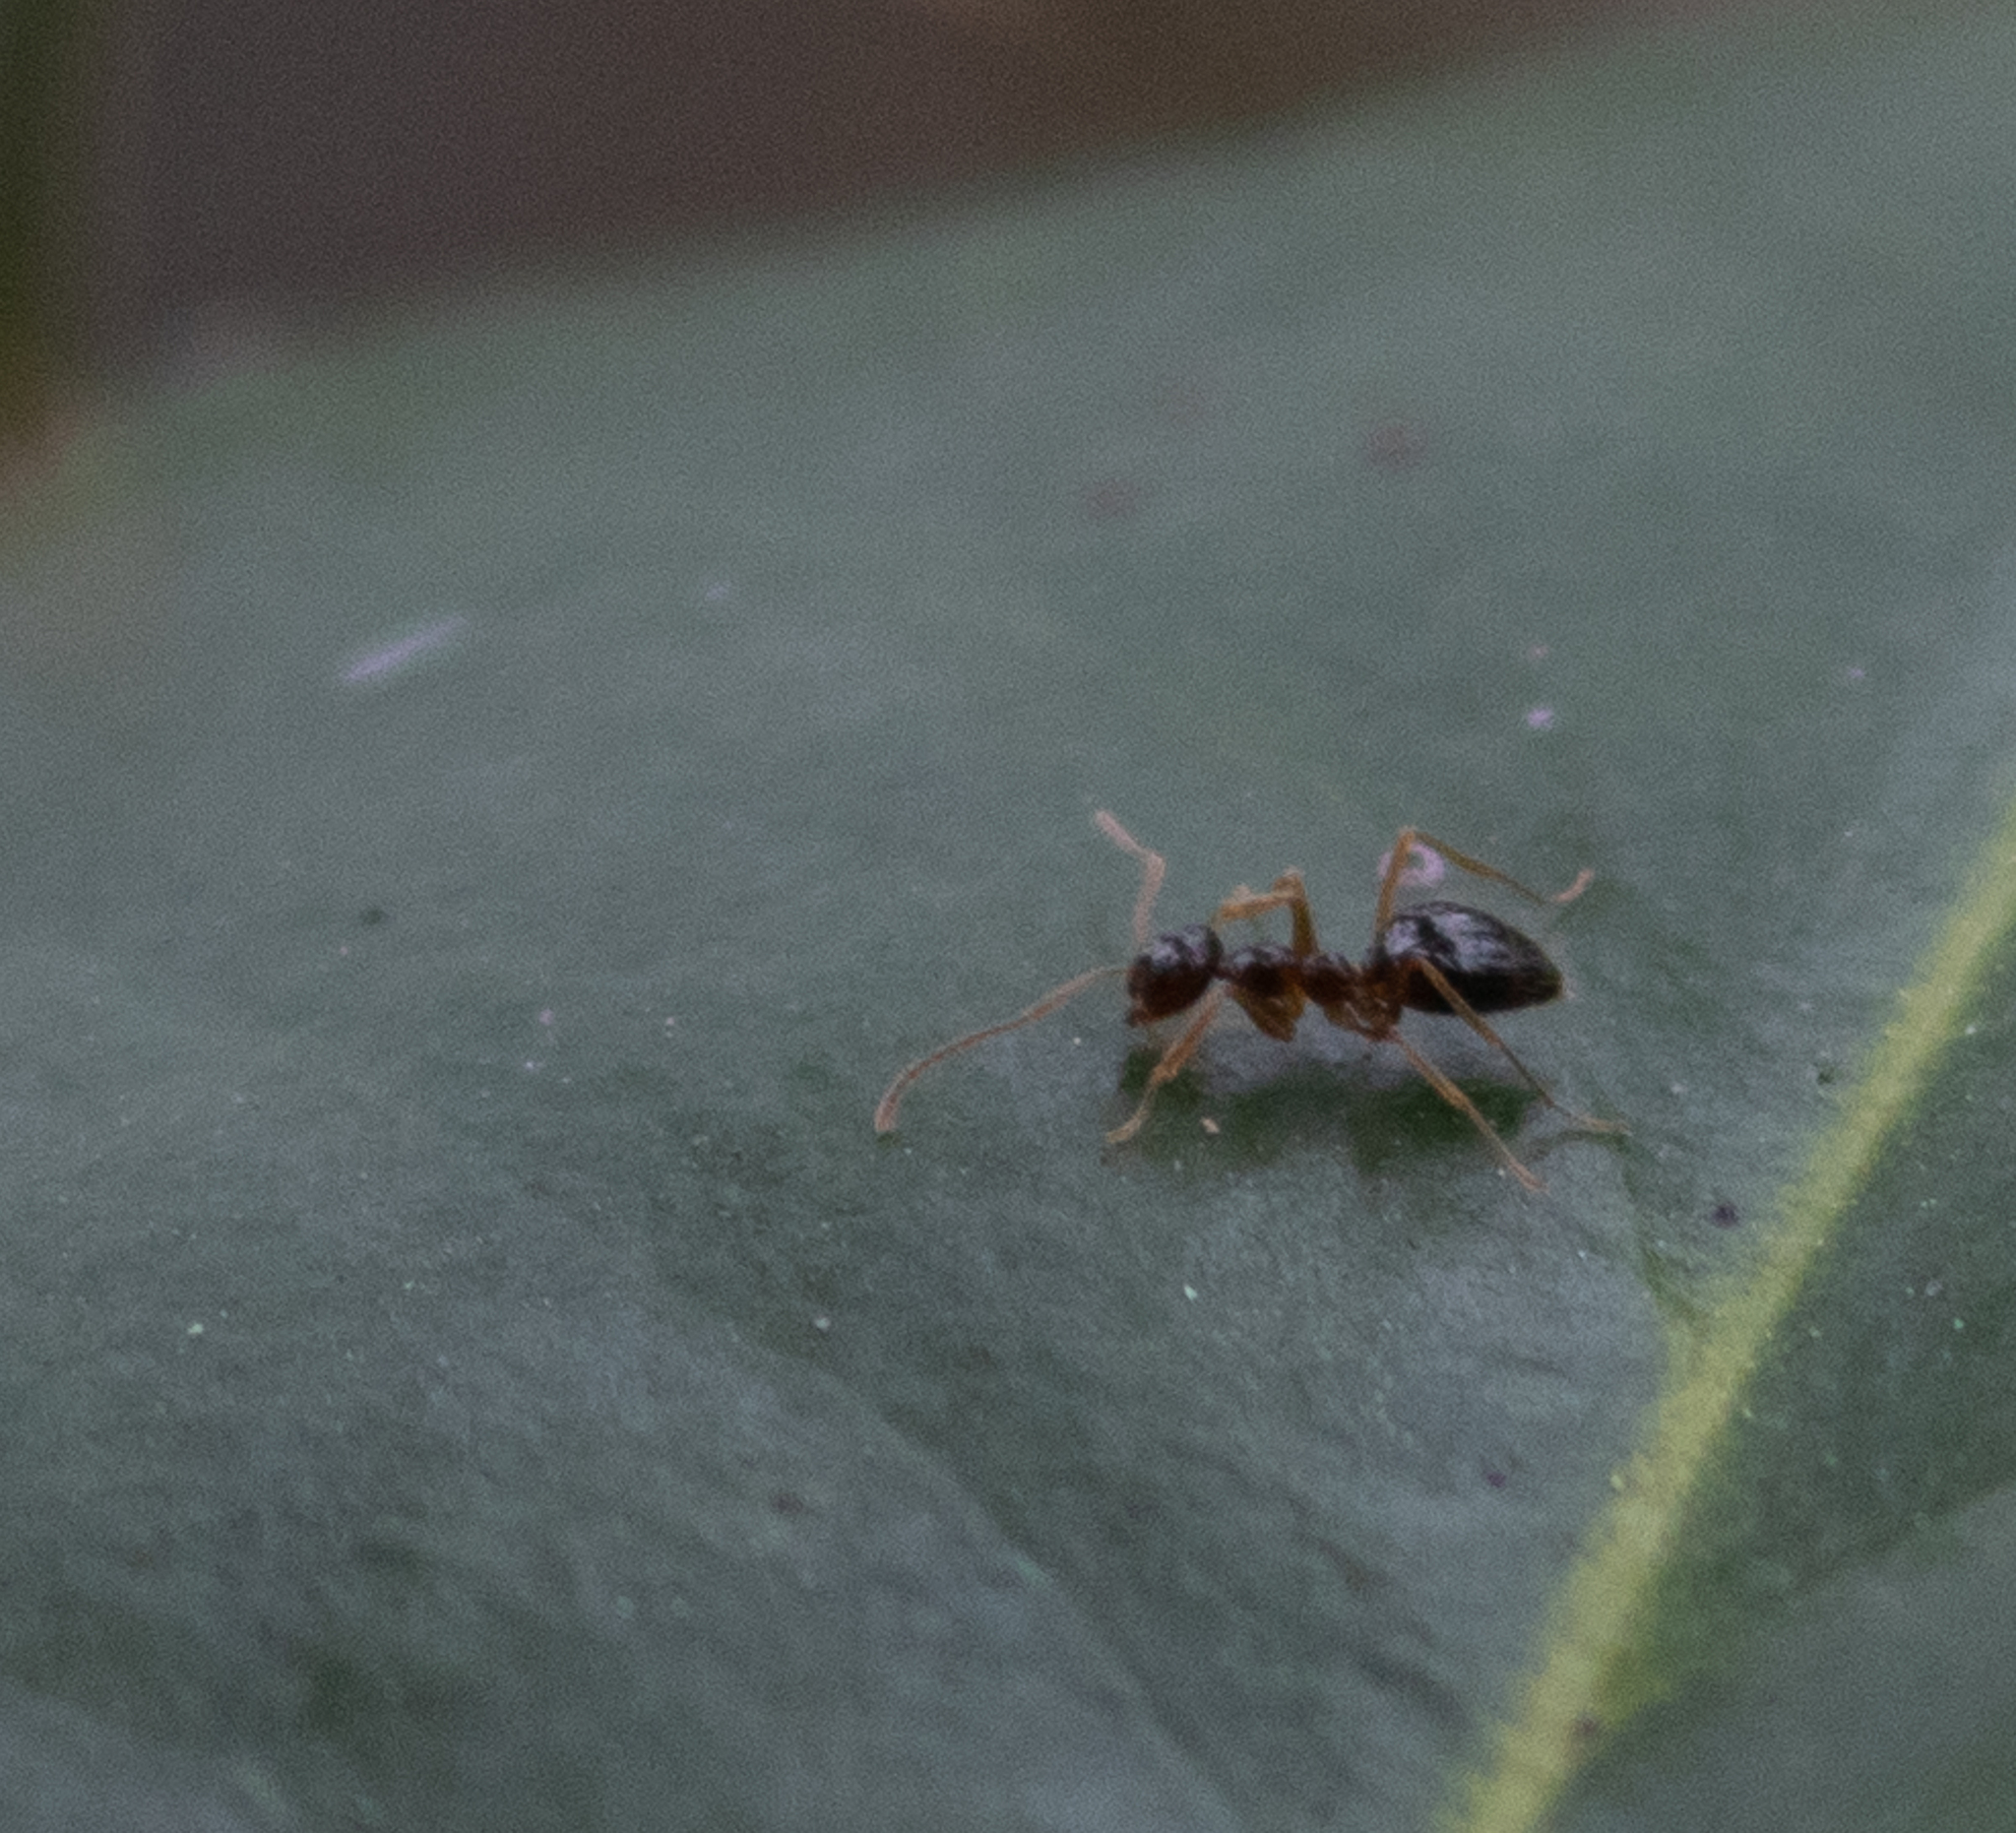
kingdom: Animalia
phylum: Arthropoda
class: Insecta
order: Hymenoptera
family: Formicidae
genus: Prenolepis
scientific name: Prenolepis imparis
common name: Small honey ant
